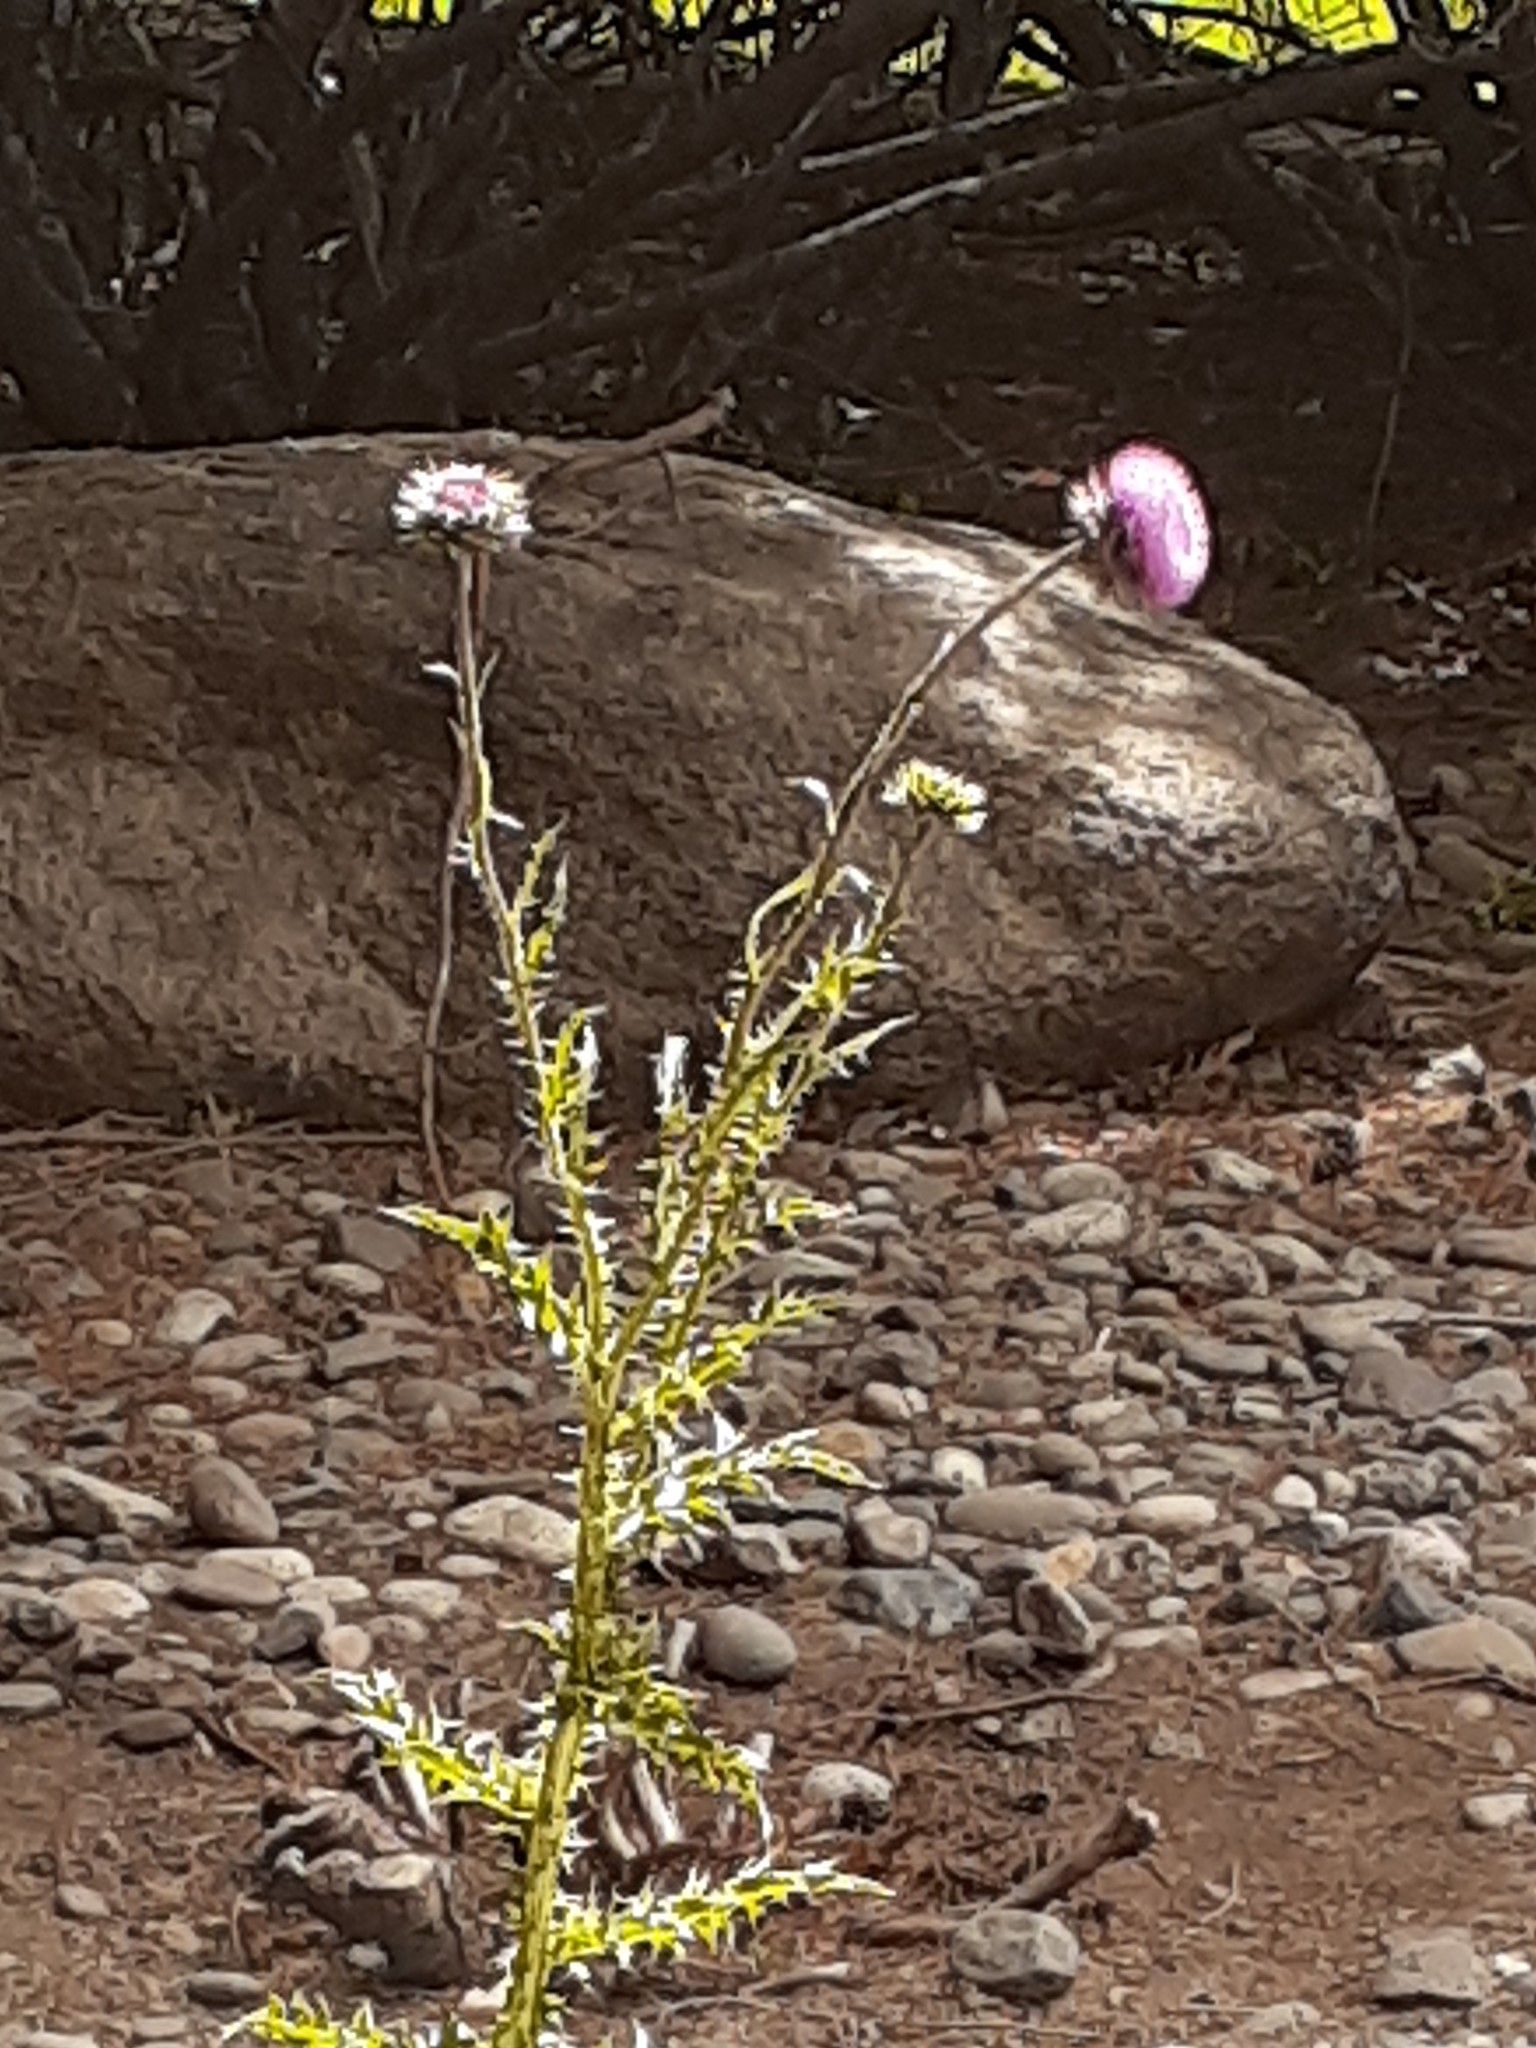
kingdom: Plantae
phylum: Tracheophyta
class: Magnoliopsida
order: Asterales
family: Asteraceae
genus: Carduus
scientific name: Carduus nutans
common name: Musk thistle
